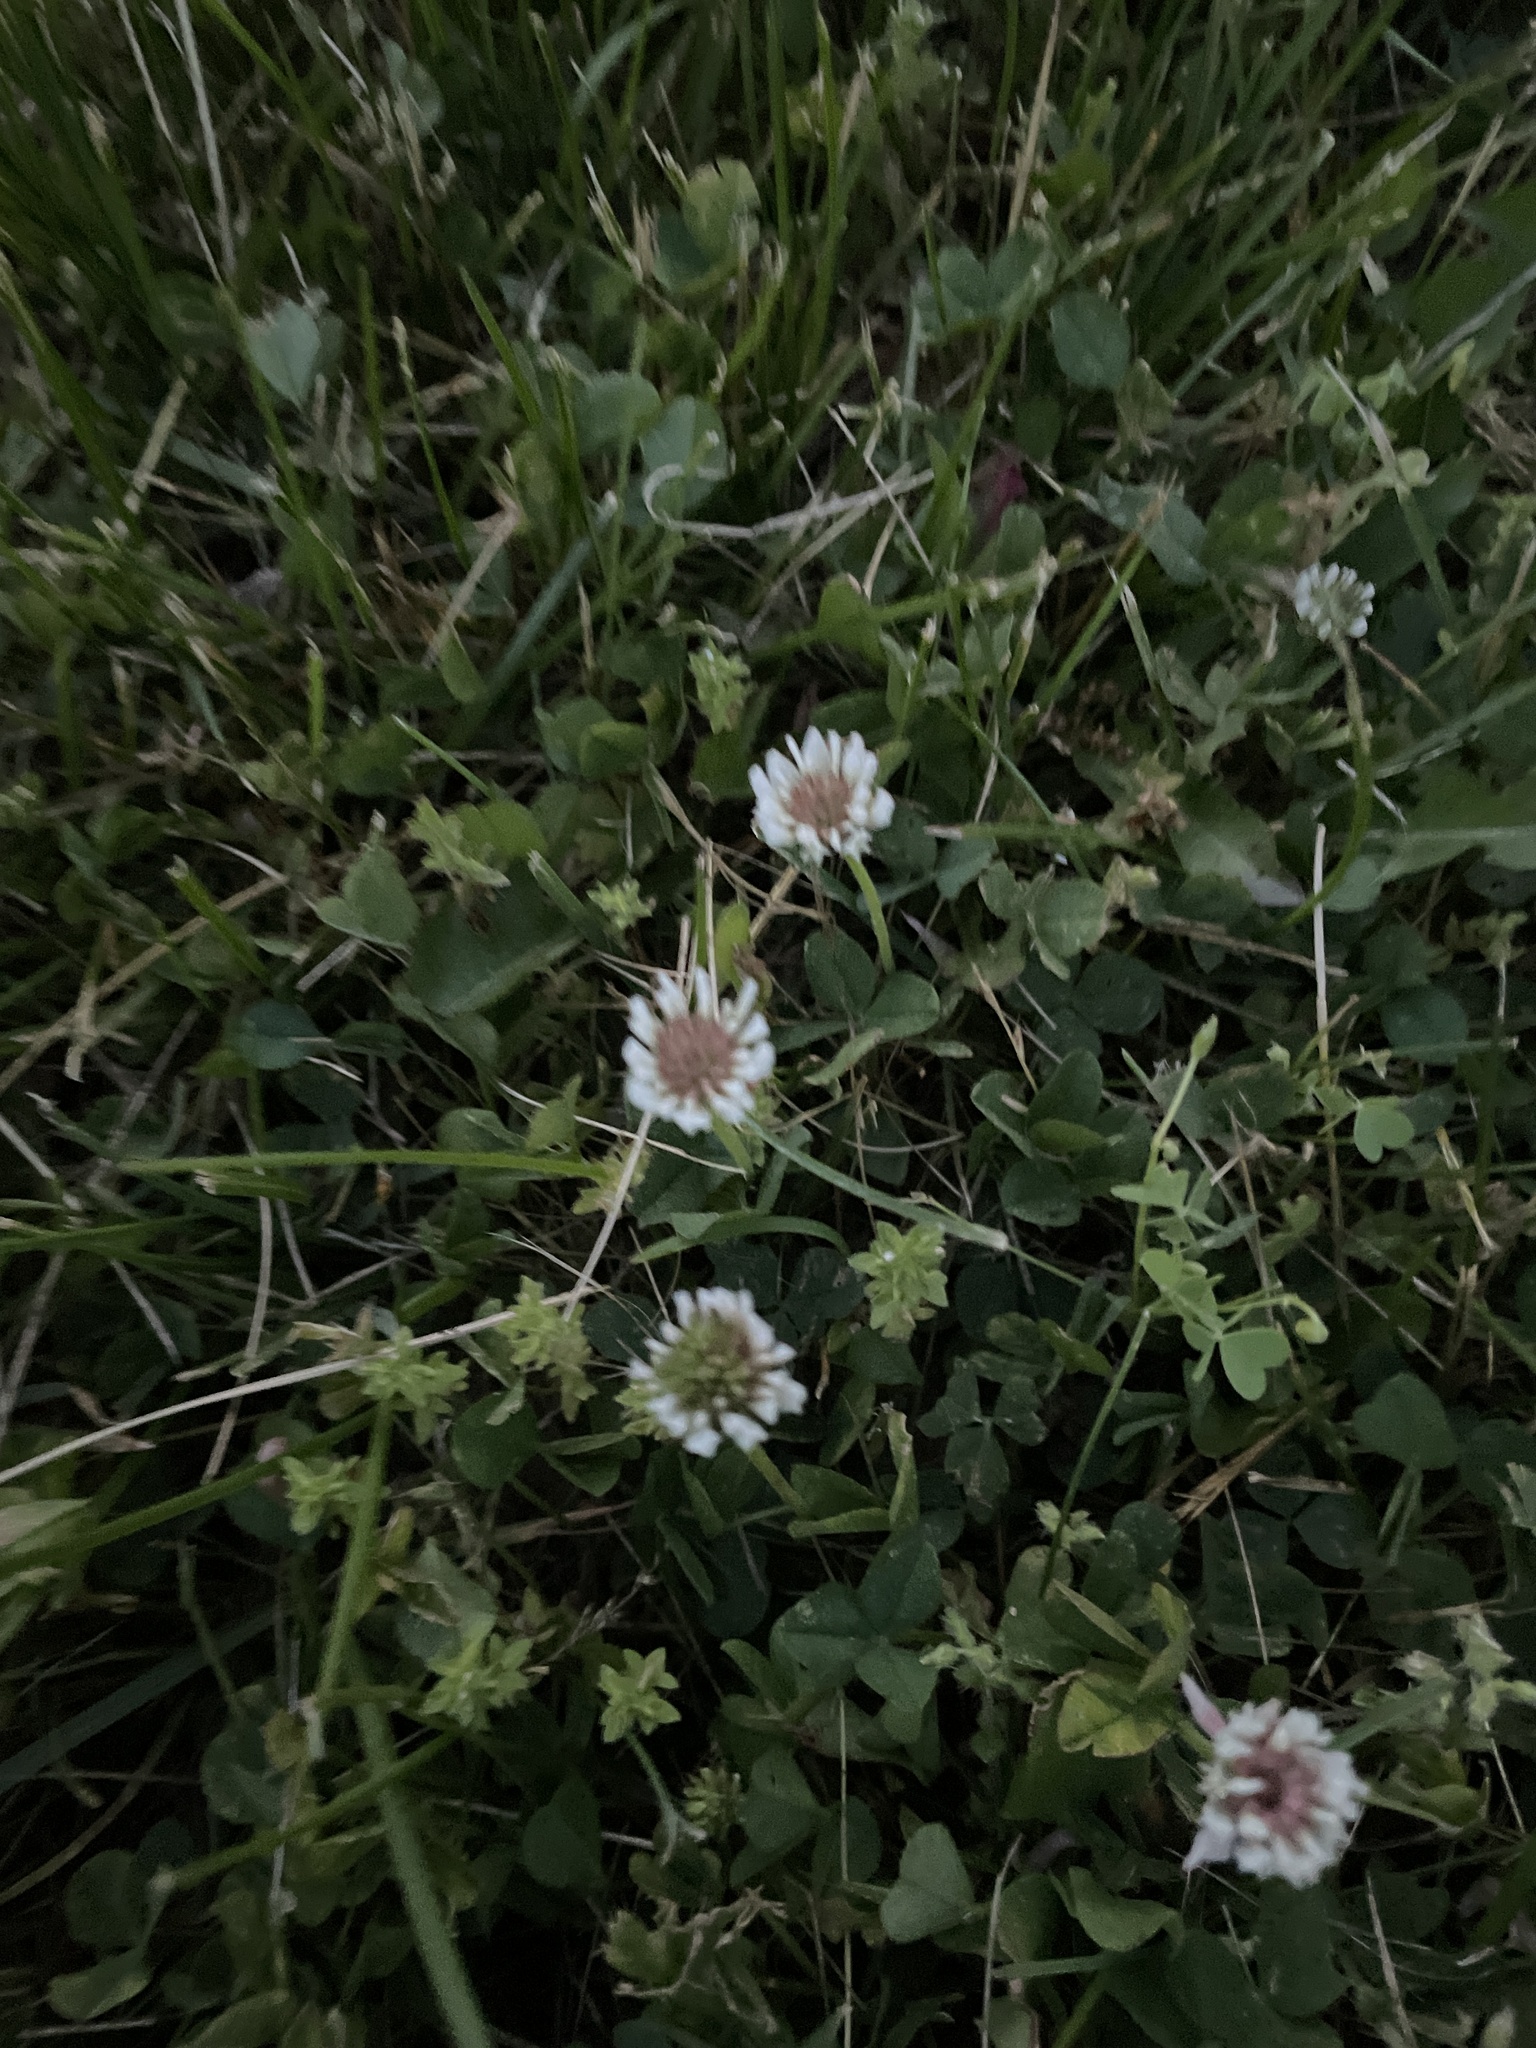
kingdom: Plantae
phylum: Tracheophyta
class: Magnoliopsida
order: Fabales
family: Fabaceae
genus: Trifolium
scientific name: Trifolium repens
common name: White clover
